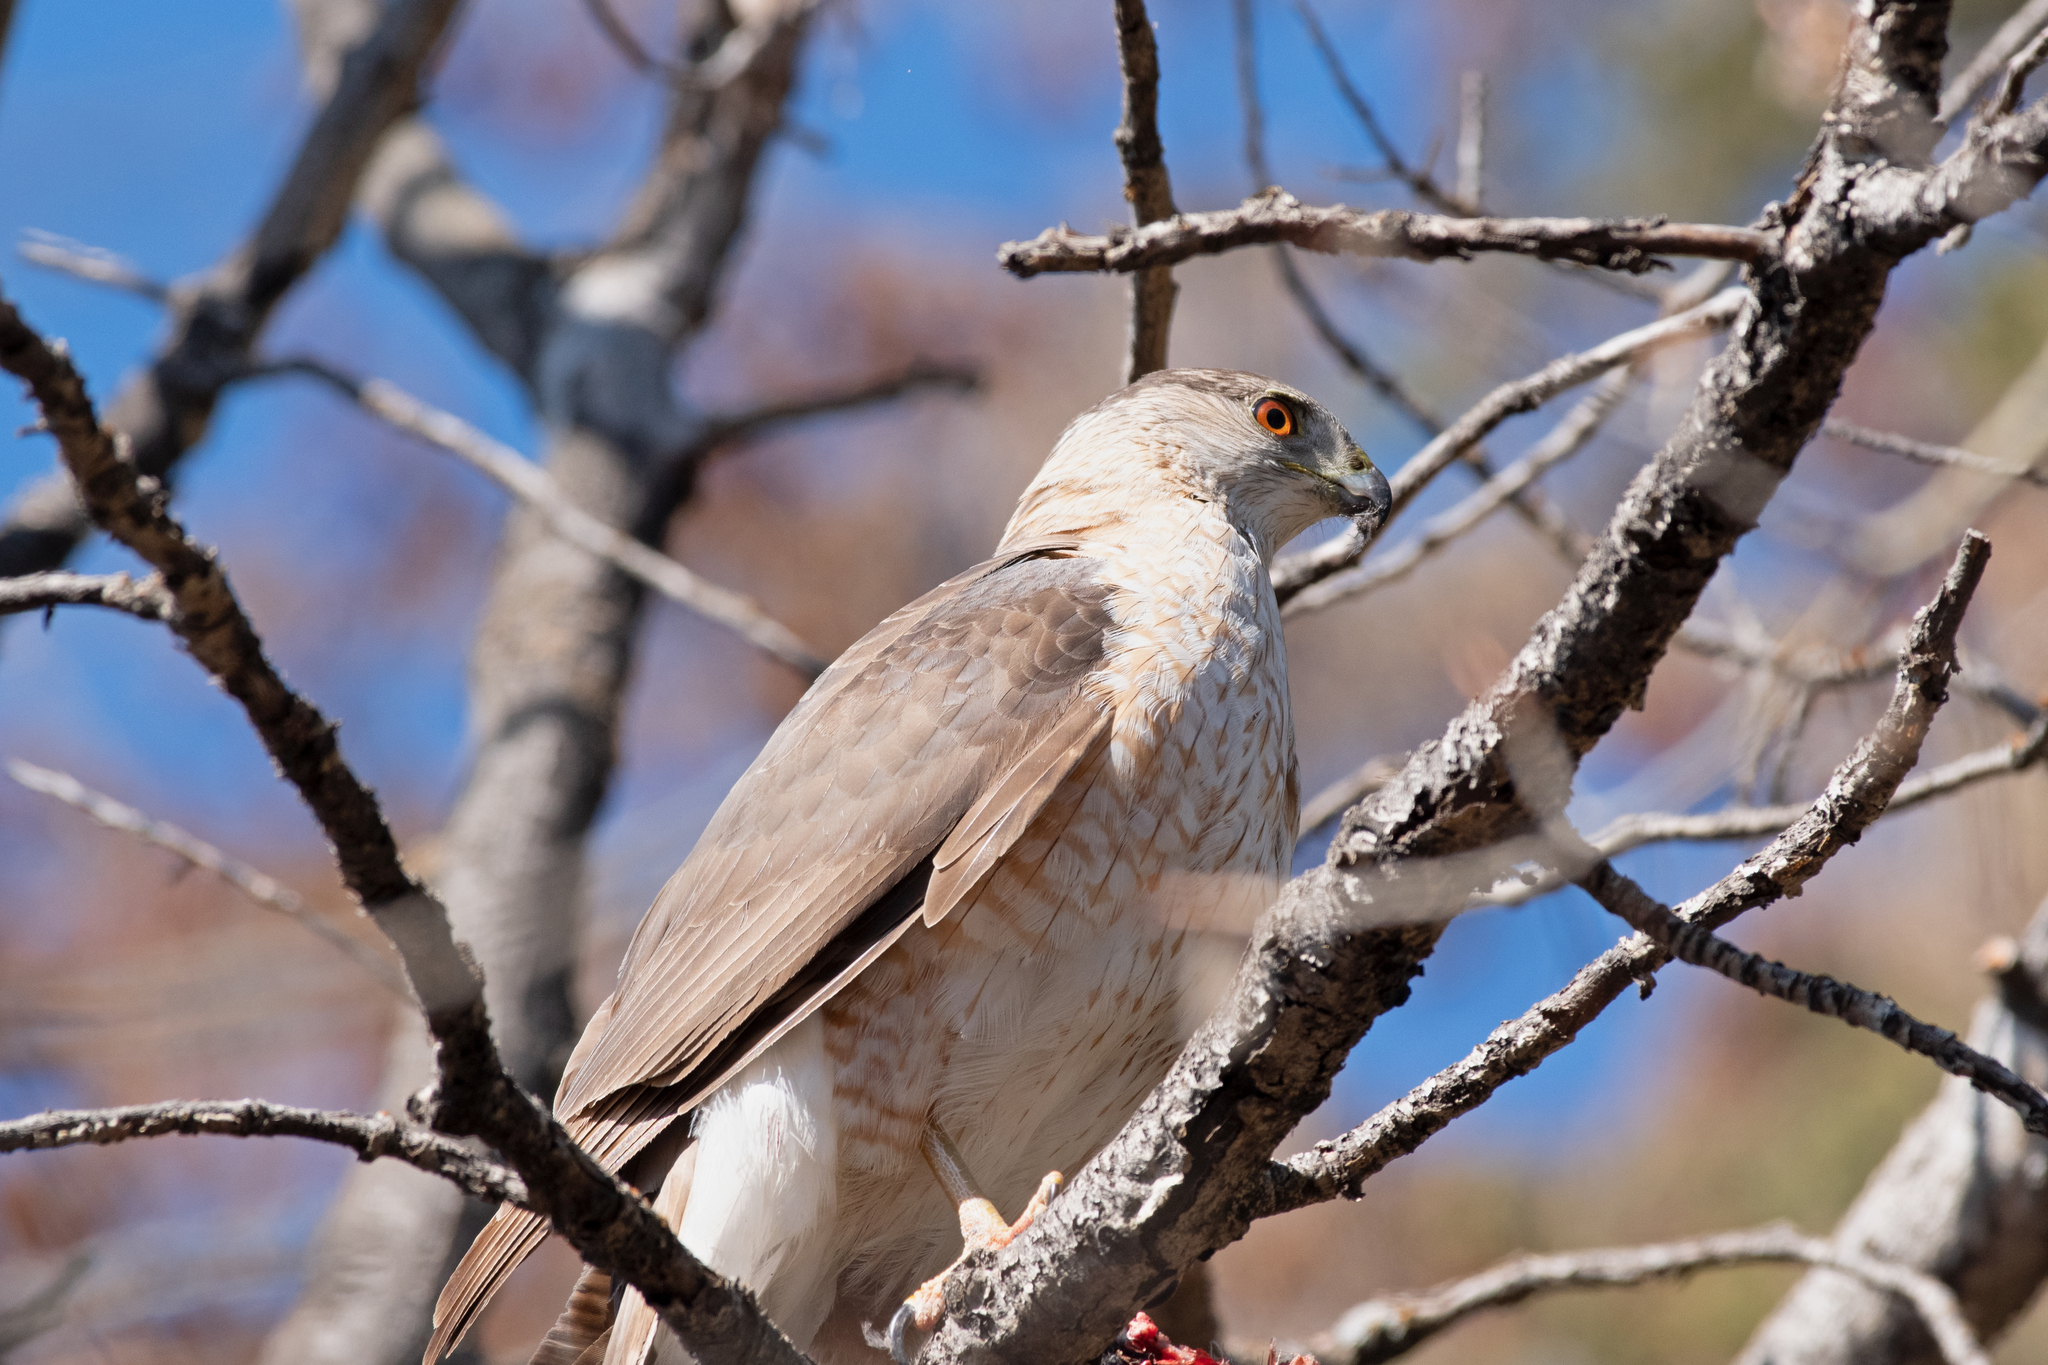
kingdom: Animalia
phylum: Chordata
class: Aves
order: Accipitriformes
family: Accipitridae
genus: Accipiter
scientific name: Accipiter cooperii
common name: Cooper's hawk
